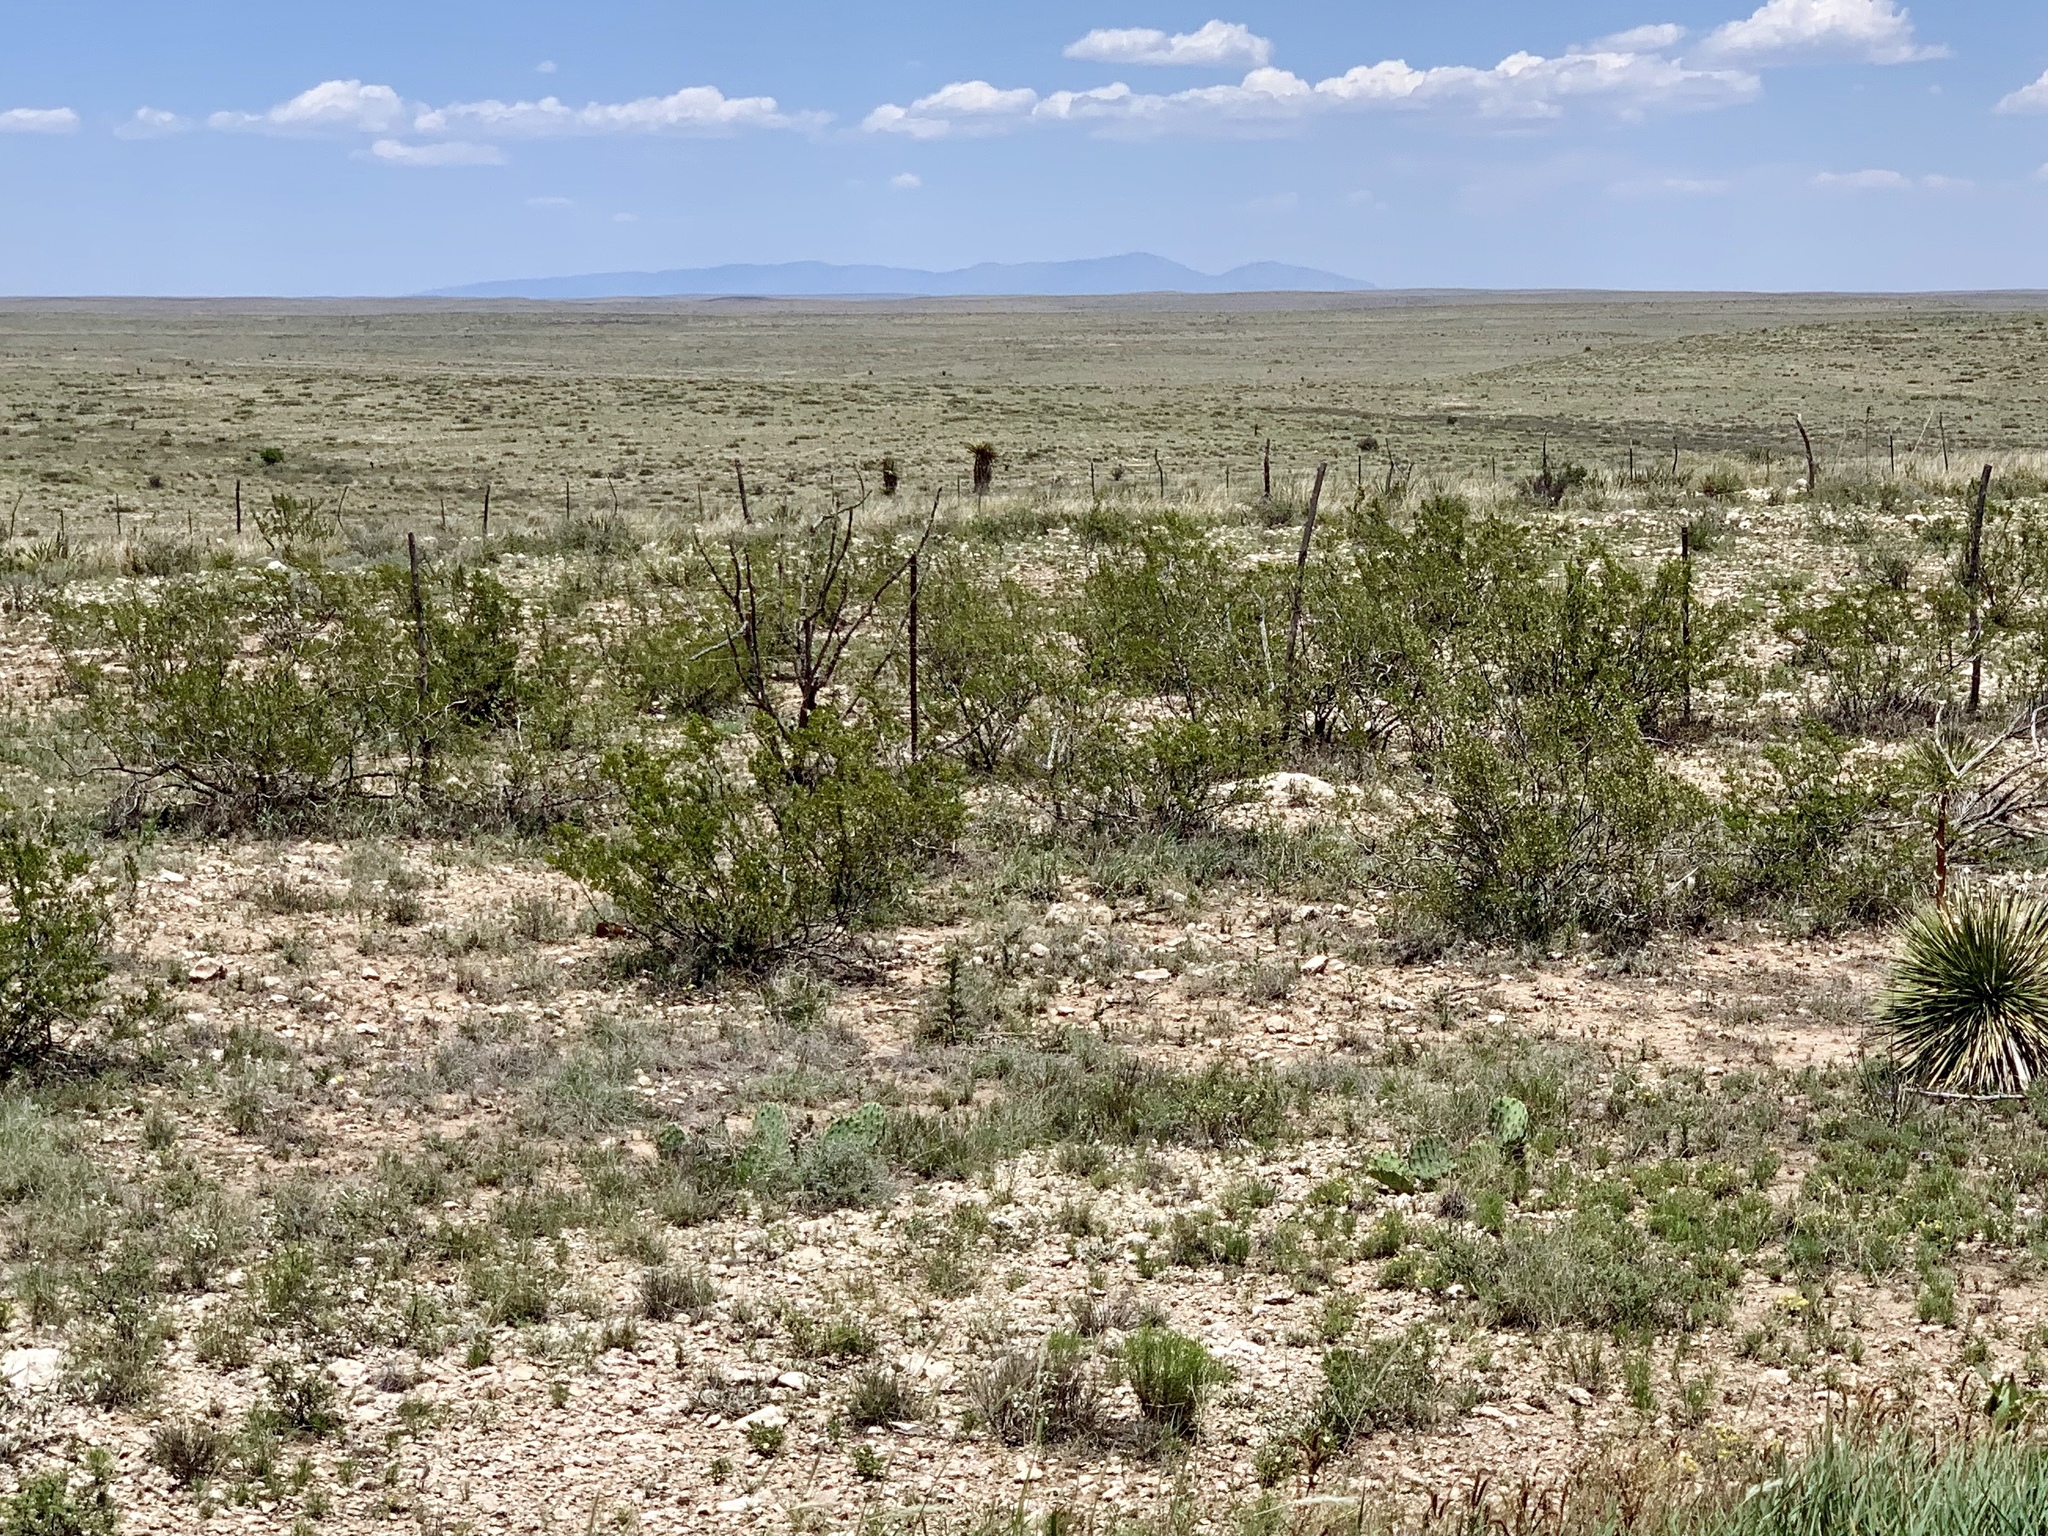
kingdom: Plantae
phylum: Tracheophyta
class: Magnoliopsida
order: Zygophyllales
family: Zygophyllaceae
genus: Larrea
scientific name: Larrea tridentata
